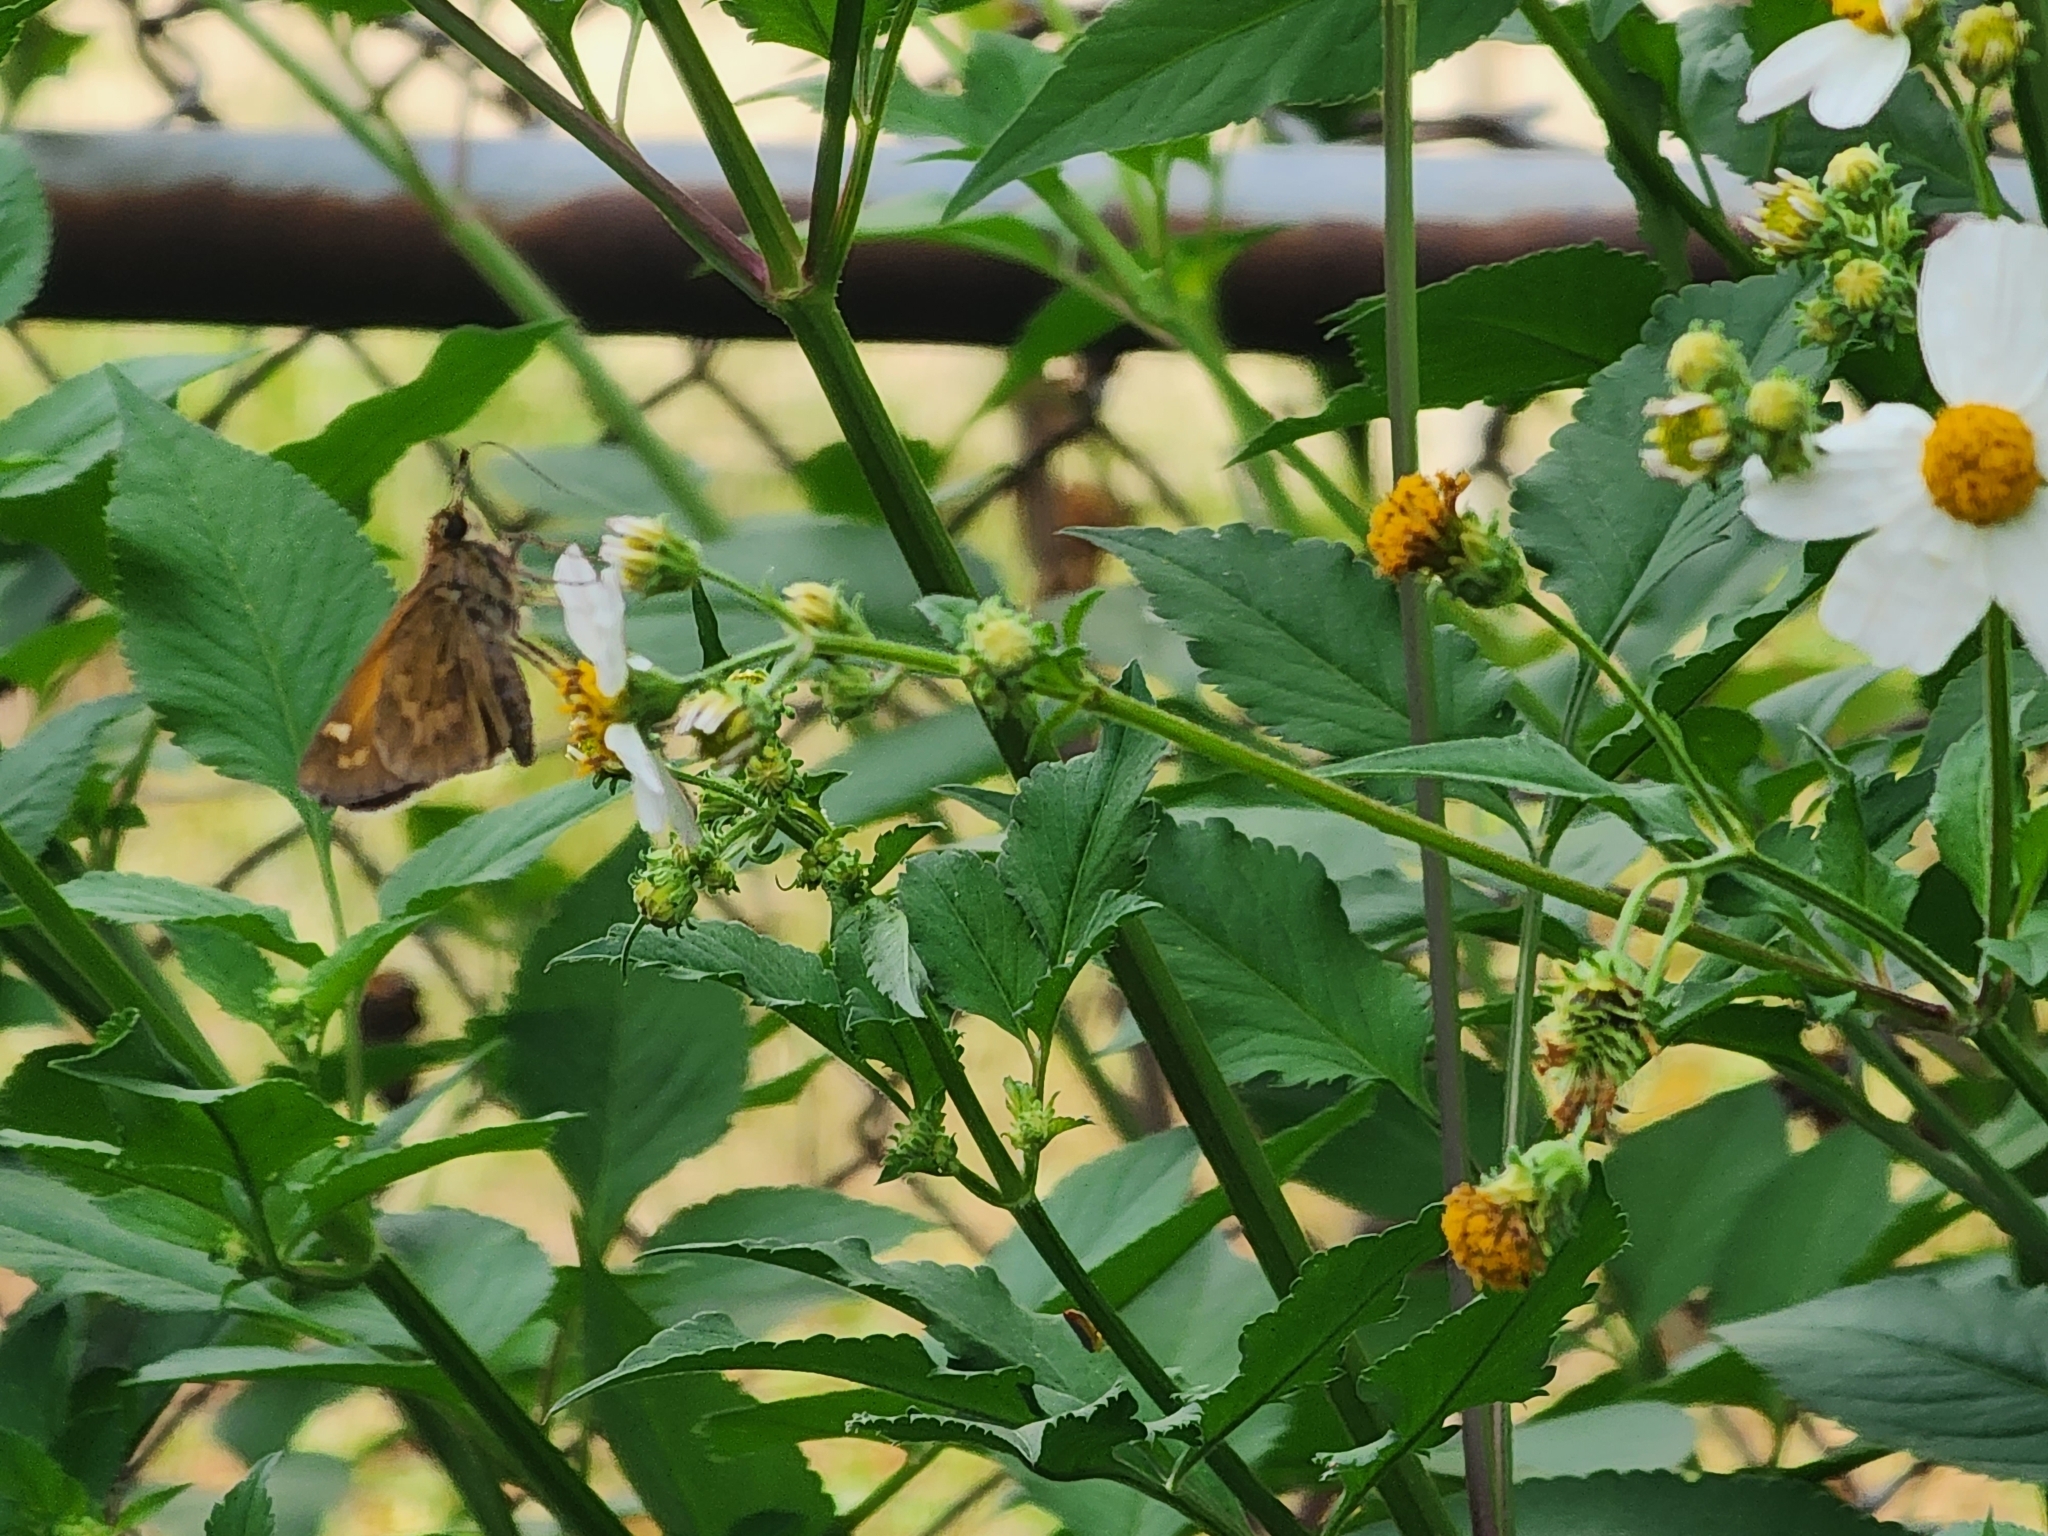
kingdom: Animalia
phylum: Arthropoda
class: Insecta
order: Lepidoptera
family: Hesperiidae
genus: Atalopedes
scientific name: Atalopedes
